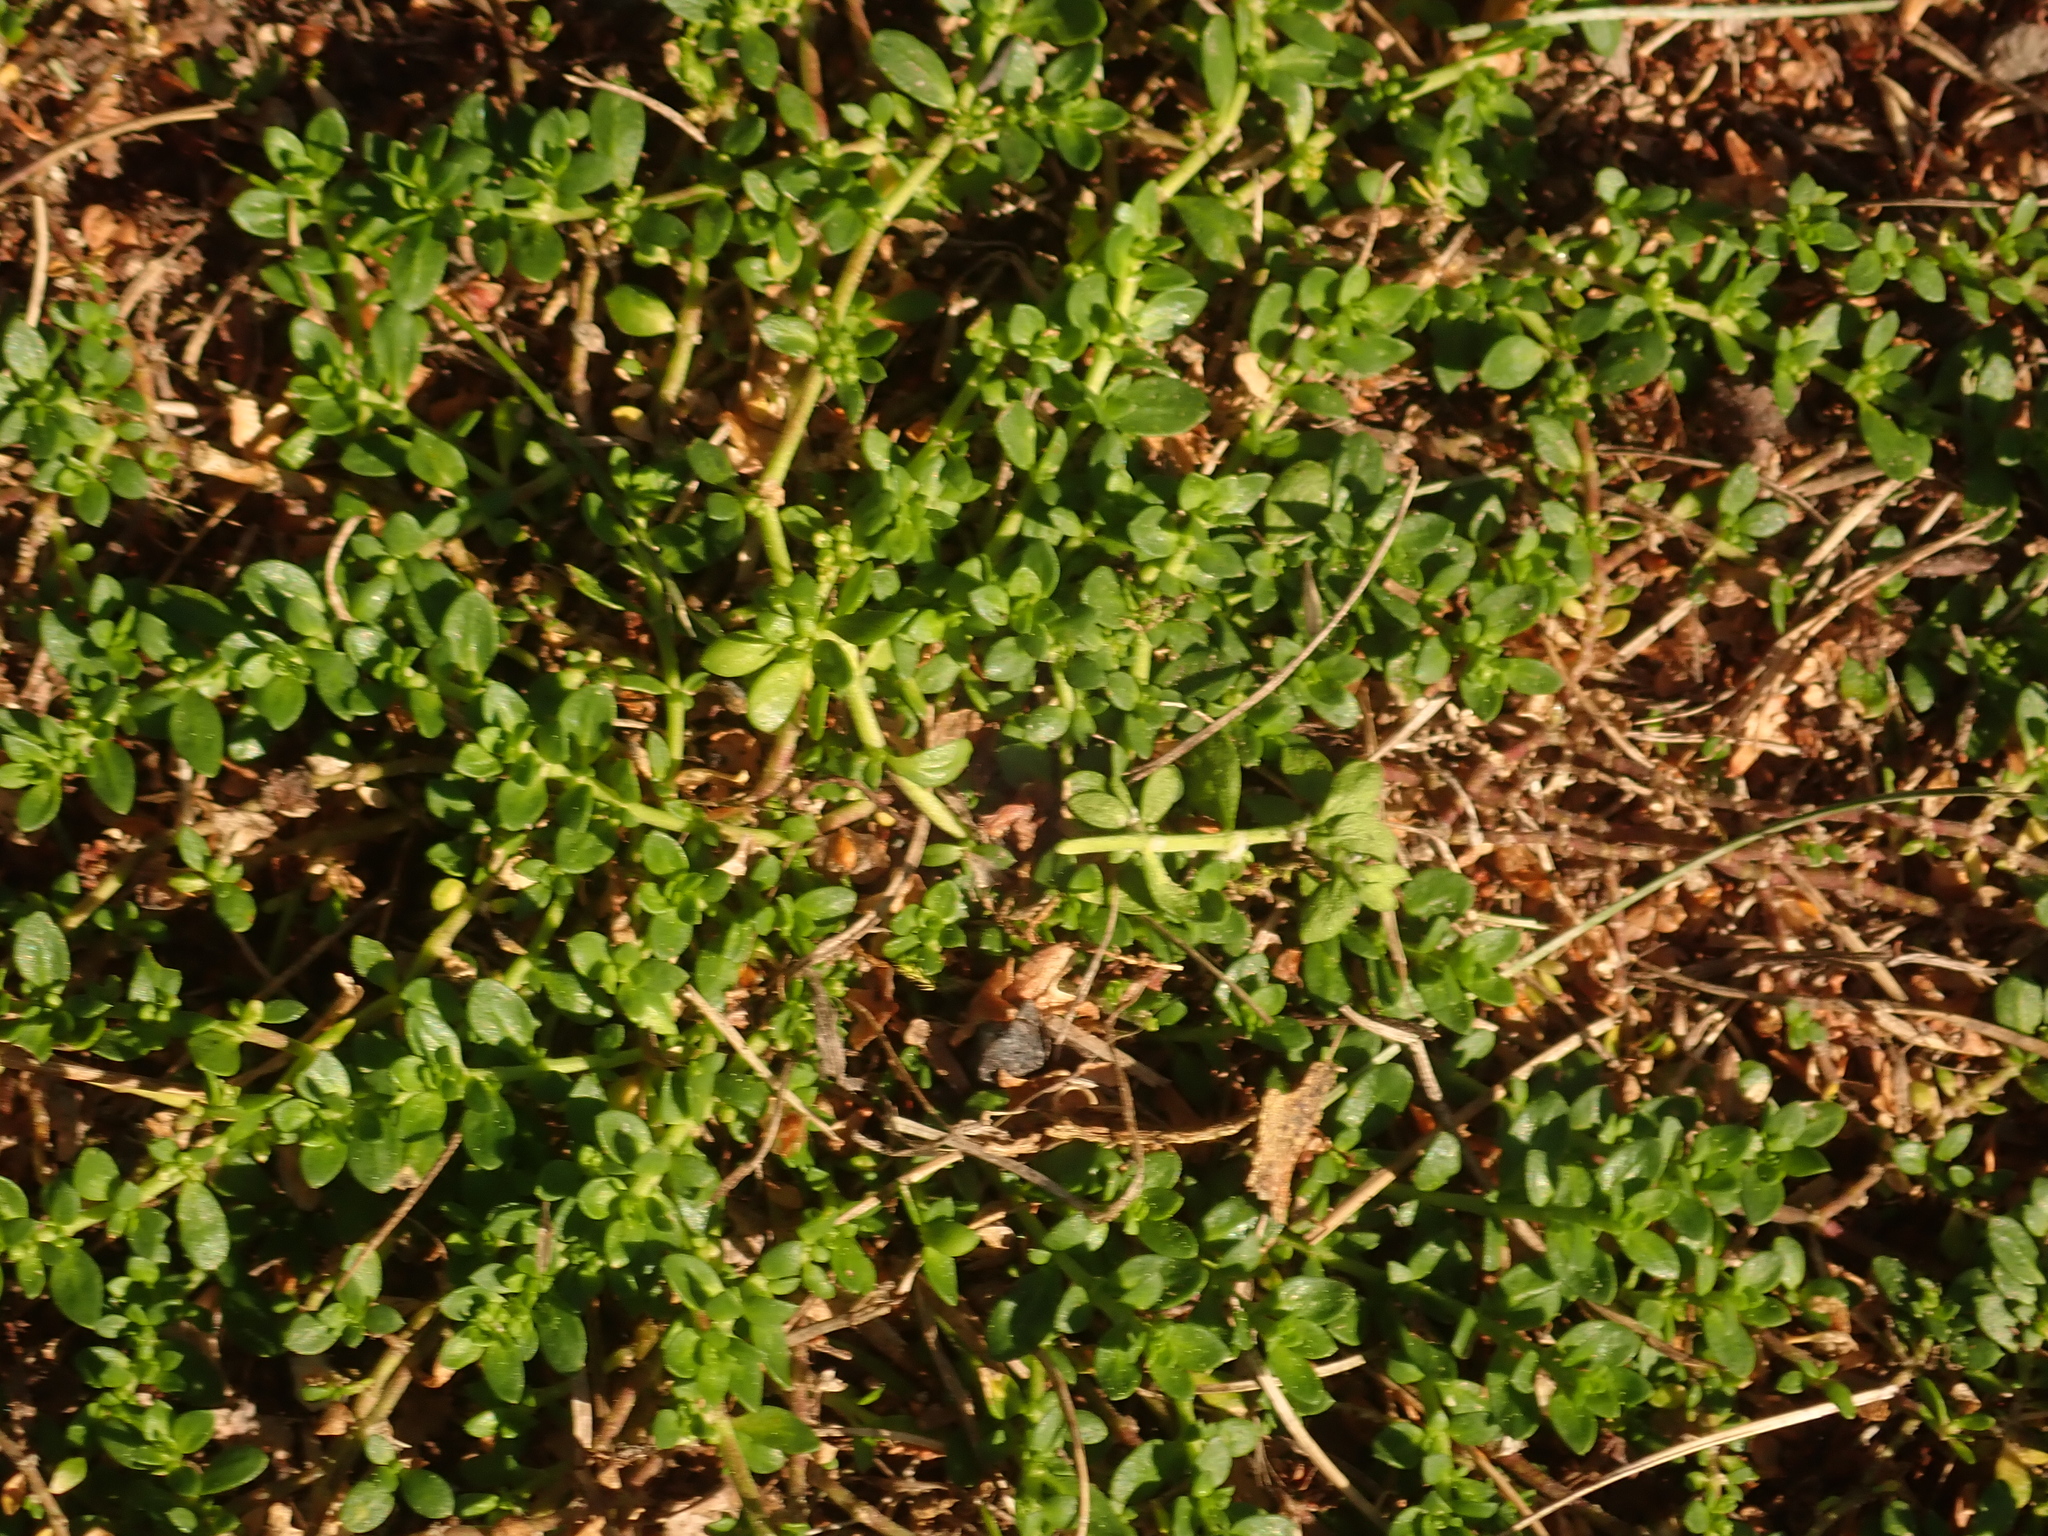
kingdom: Plantae
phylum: Tracheophyta
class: Magnoliopsida
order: Caryophyllales
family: Caryophyllaceae
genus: Herniaria
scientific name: Herniaria glabra
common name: Smooth rupturewort
